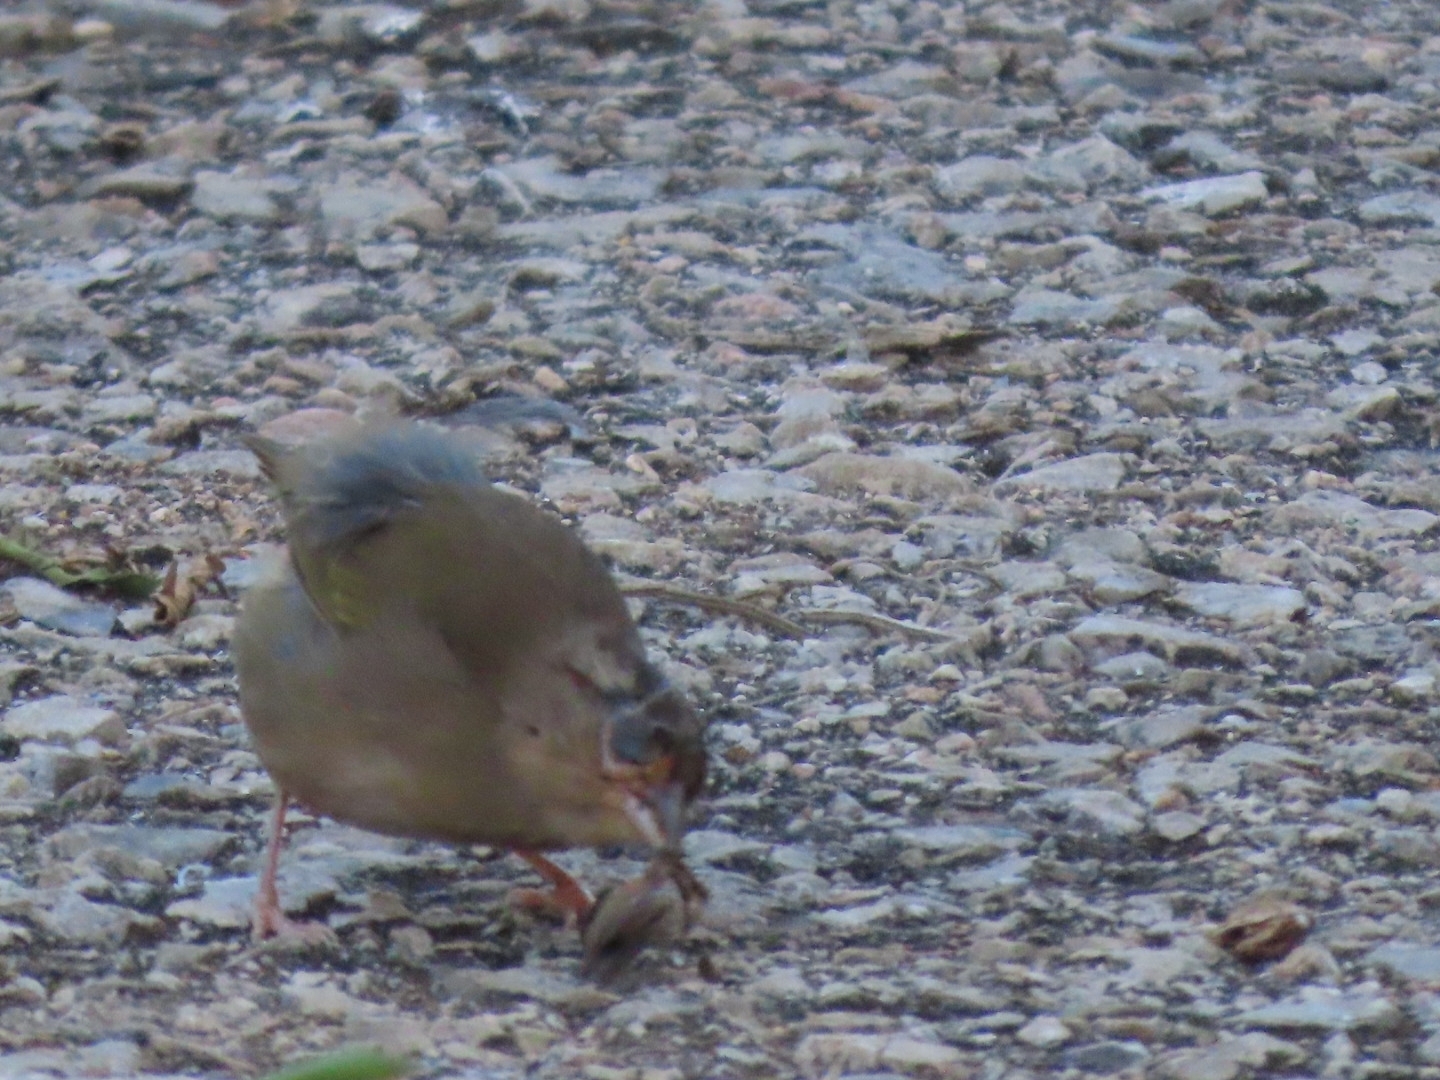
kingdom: Animalia
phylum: Chordata
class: Aves
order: Passeriformes
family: Passerellidae
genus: Arremonops
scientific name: Arremonops rufivirgatus
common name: Olive sparrow
